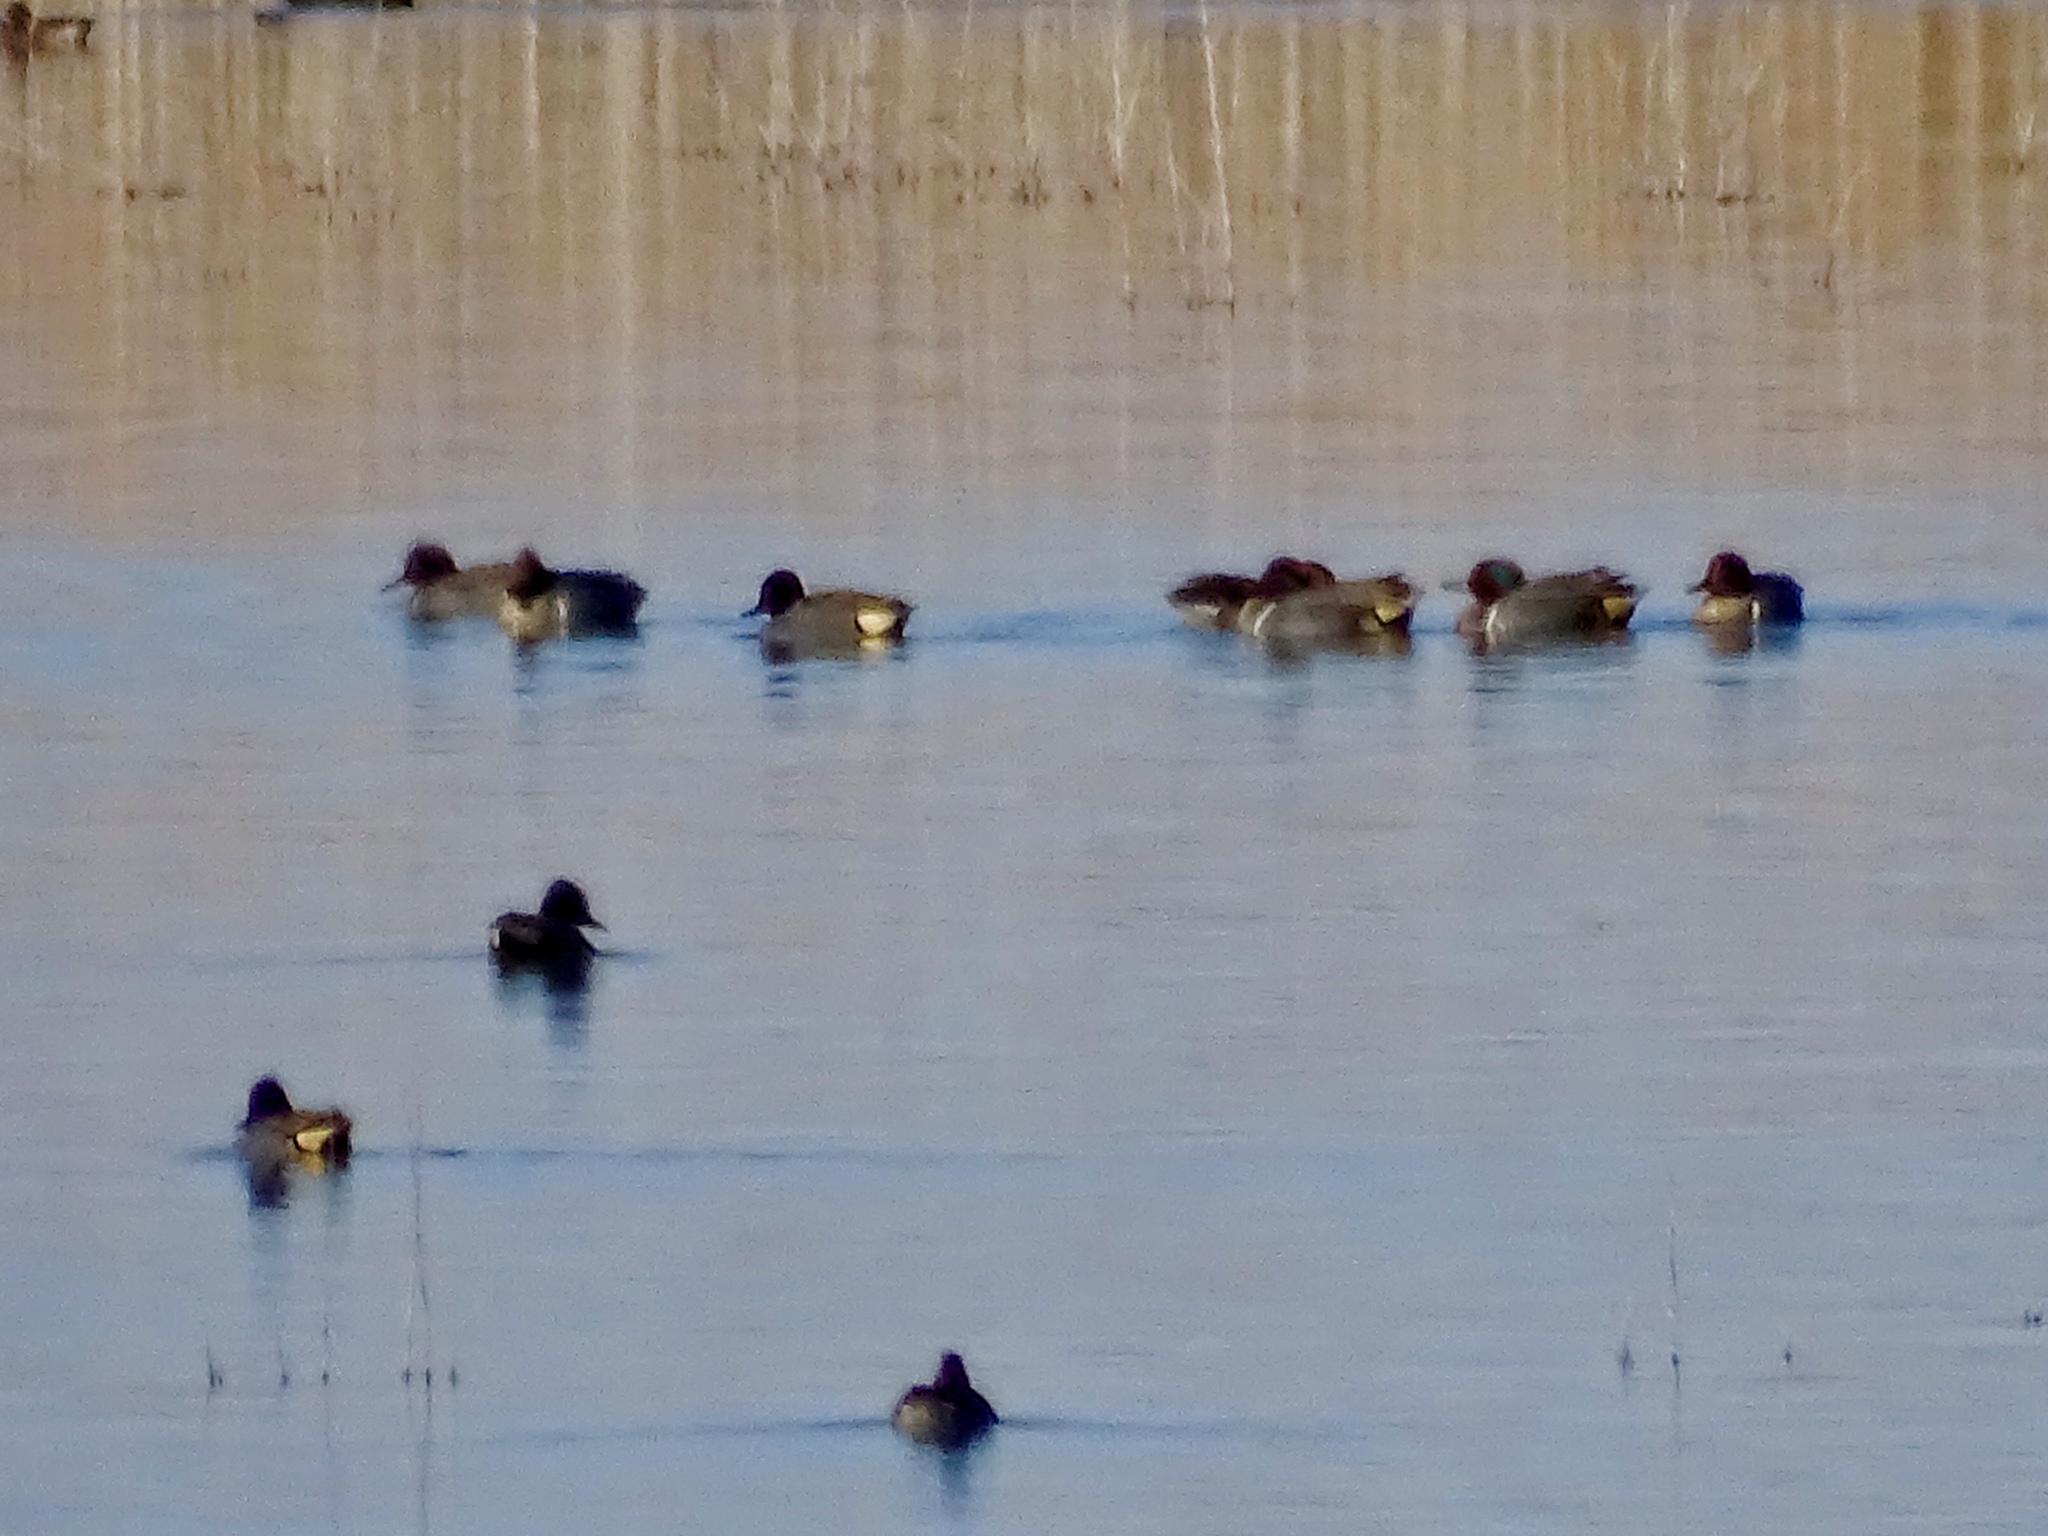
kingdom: Animalia
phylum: Chordata
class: Aves
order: Anseriformes
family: Anatidae
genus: Anas
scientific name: Anas crecca
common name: Eurasian teal
